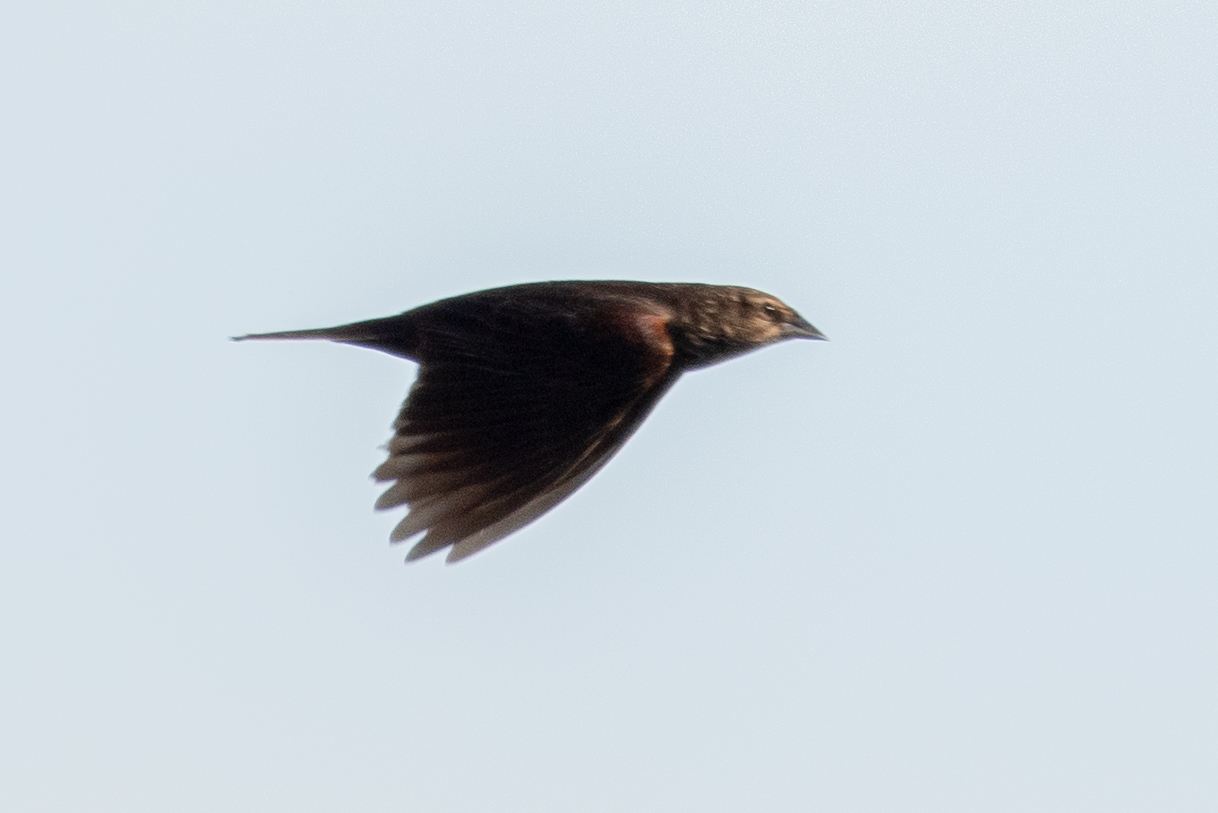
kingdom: Animalia
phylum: Chordata
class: Aves
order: Passeriformes
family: Icteridae
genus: Agelaius
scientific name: Agelaius phoeniceus
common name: Red-winged blackbird
